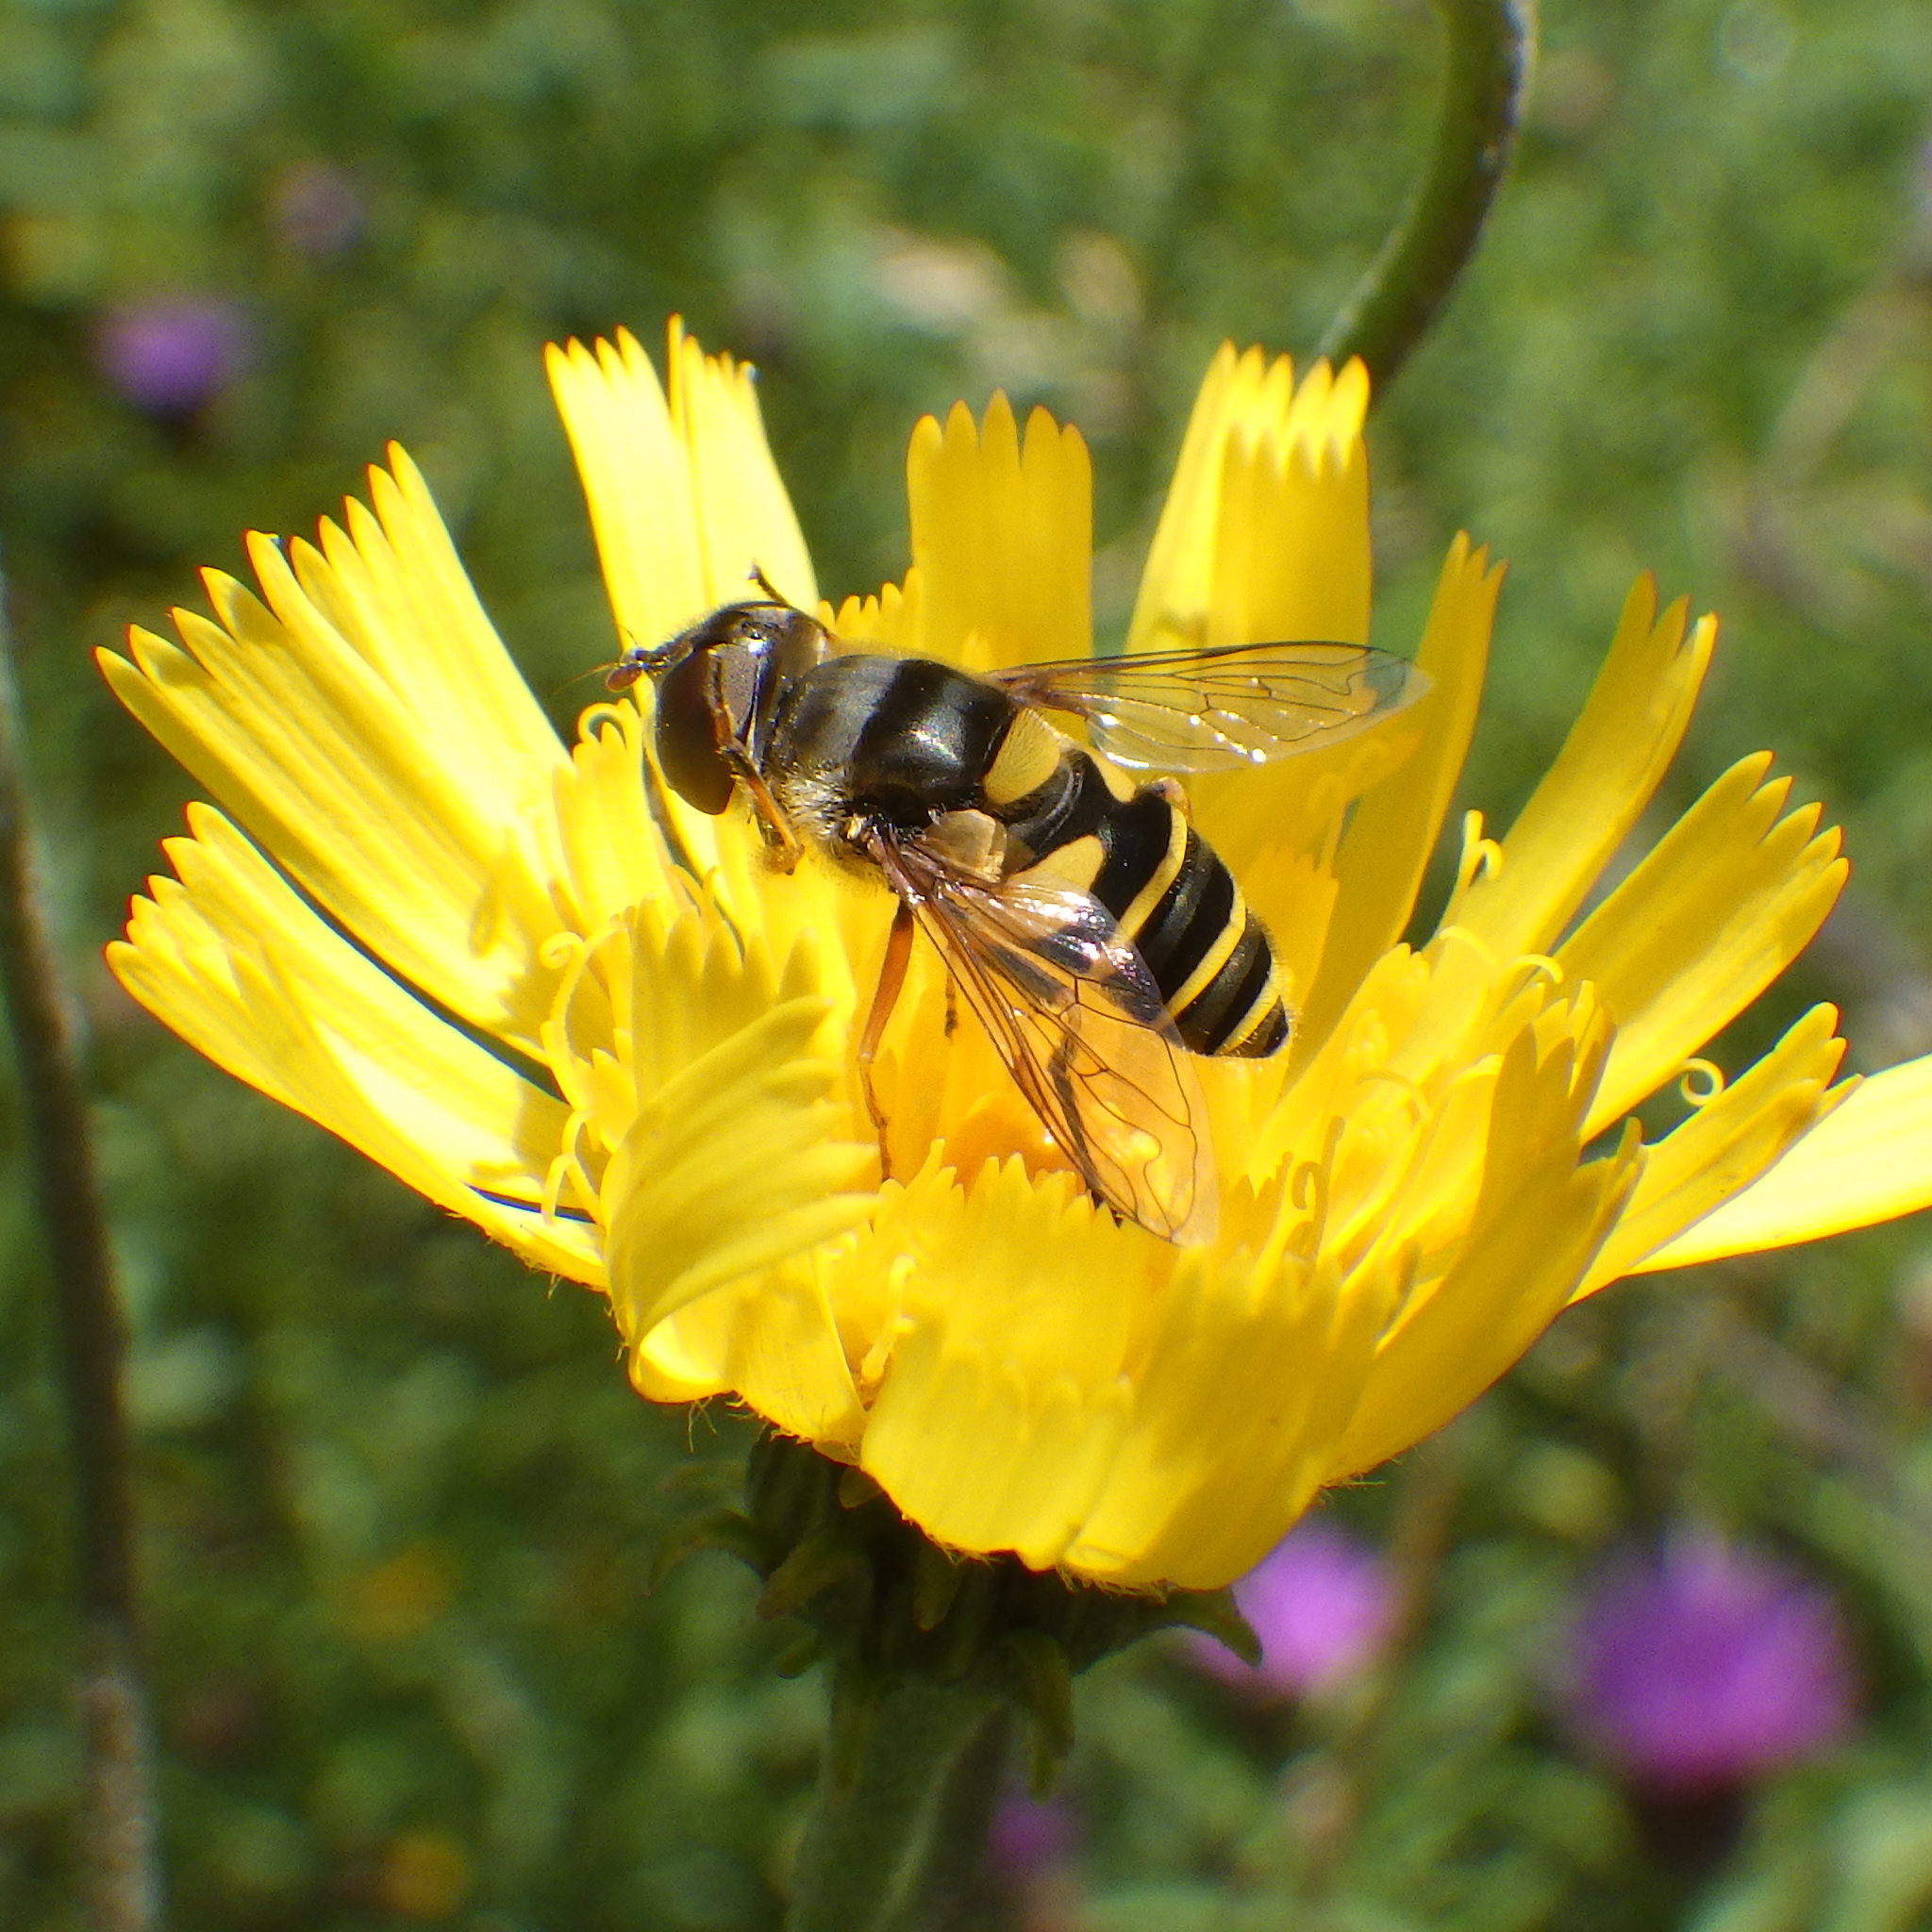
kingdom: Animalia
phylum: Arthropoda
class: Insecta
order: Diptera
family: Syrphidae
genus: Eristalis
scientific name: Eristalis transversa
